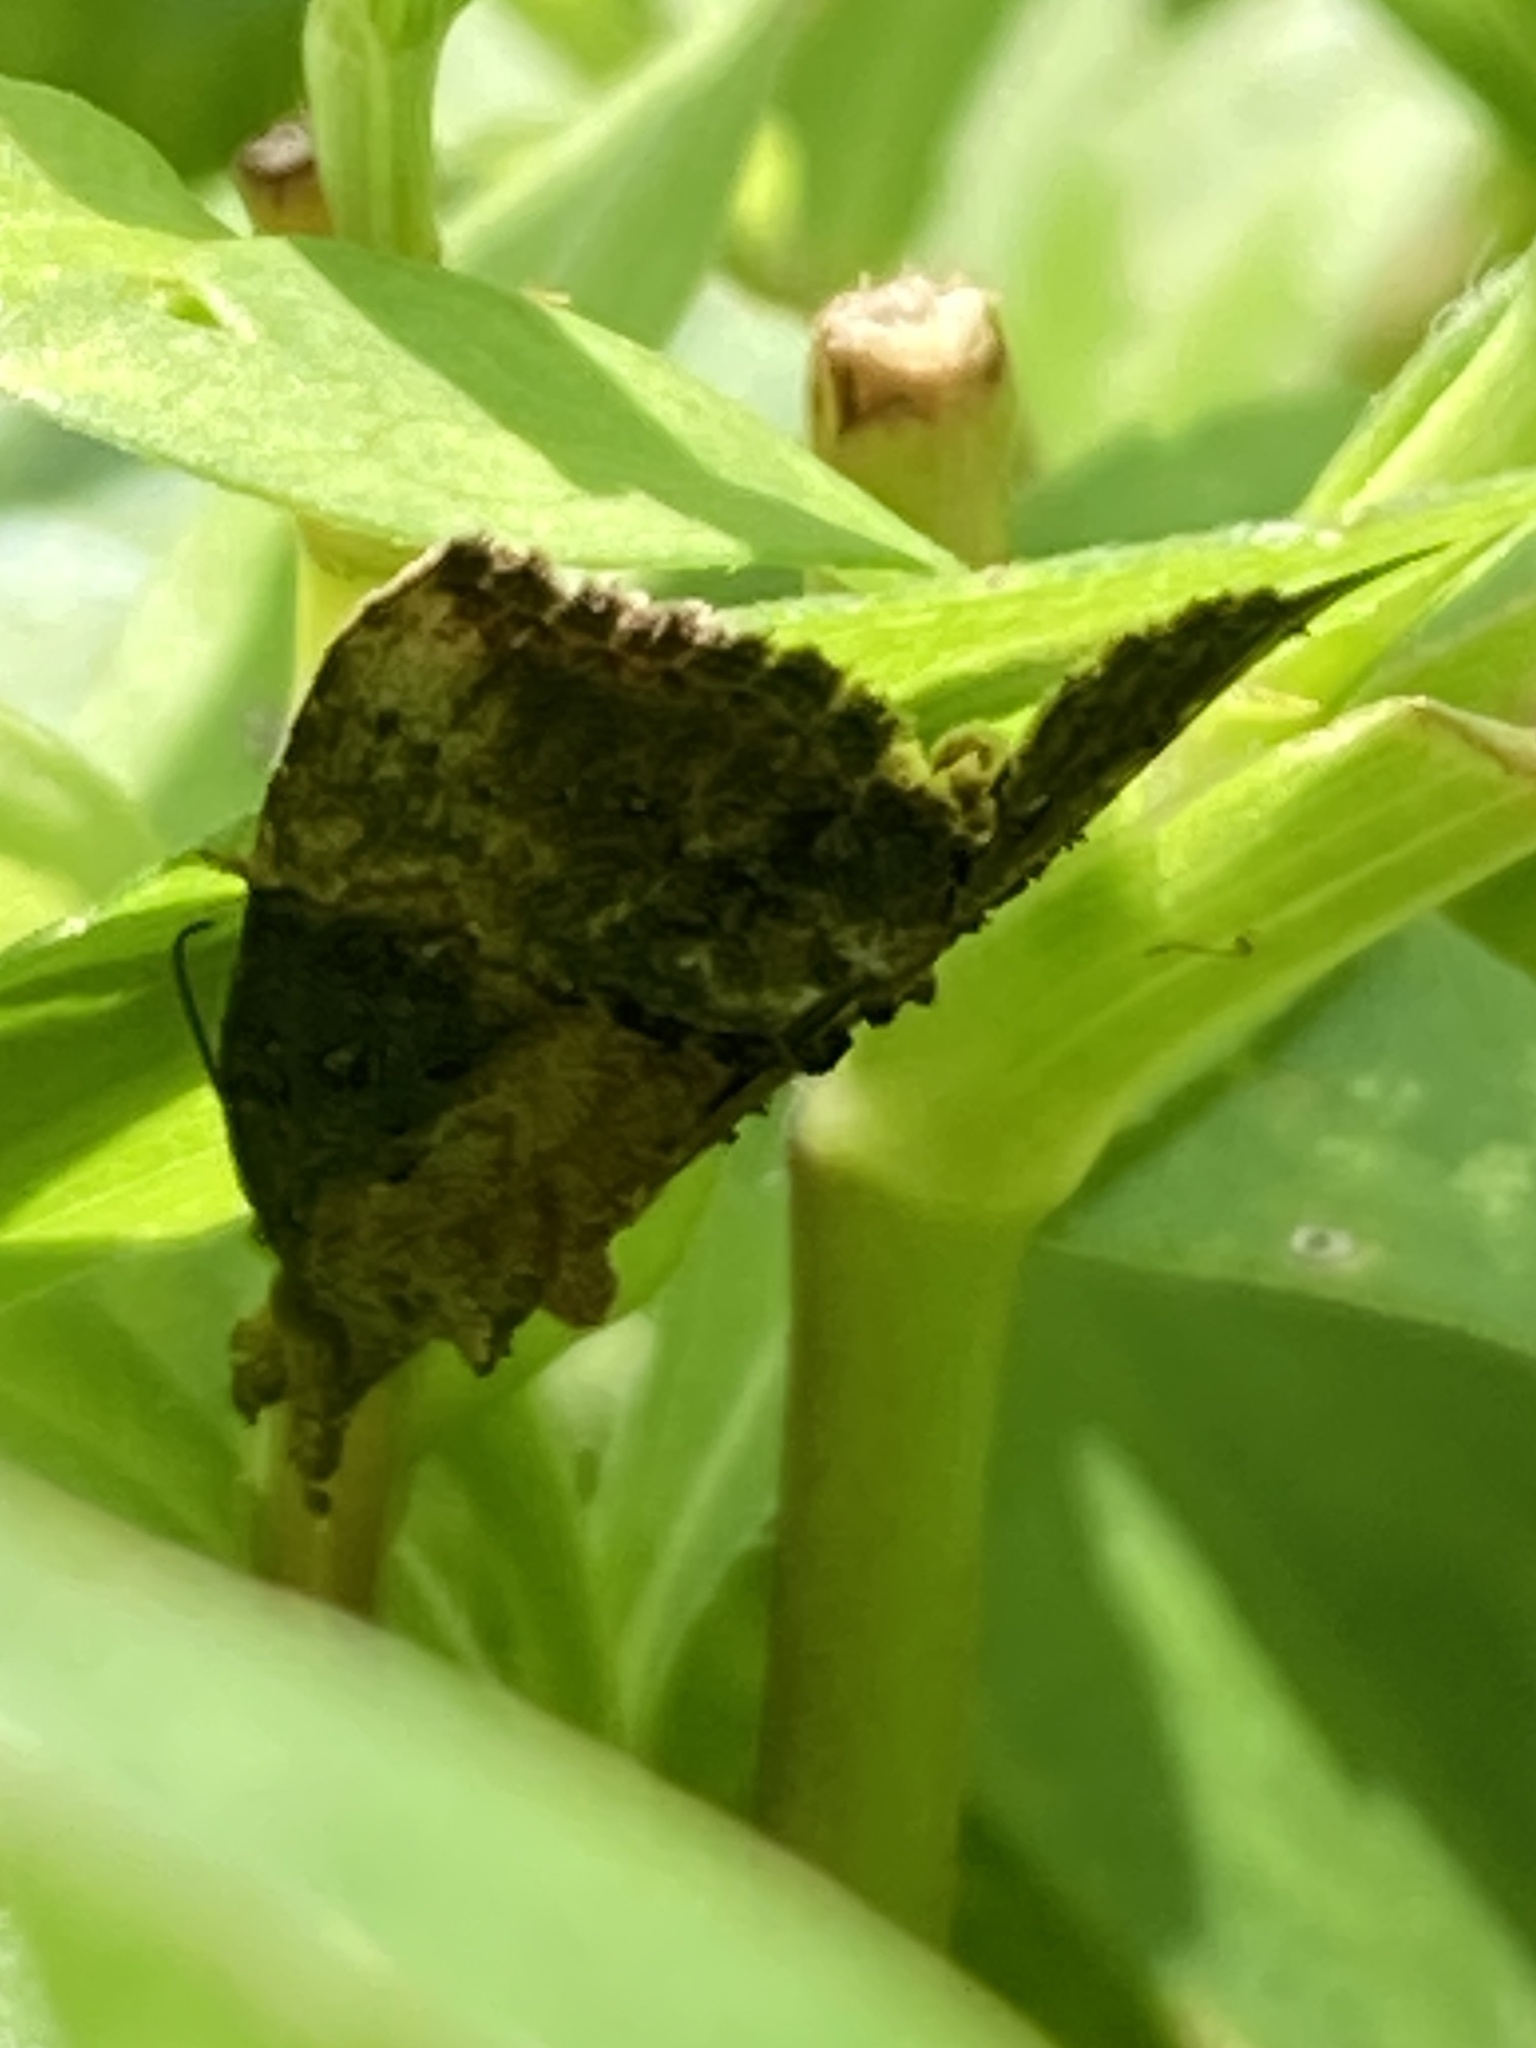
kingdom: Animalia
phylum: Arthropoda
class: Insecta
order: Lepidoptera
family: Erebidae
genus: Hypena
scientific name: Hypena scabra
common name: Green cloverworm
